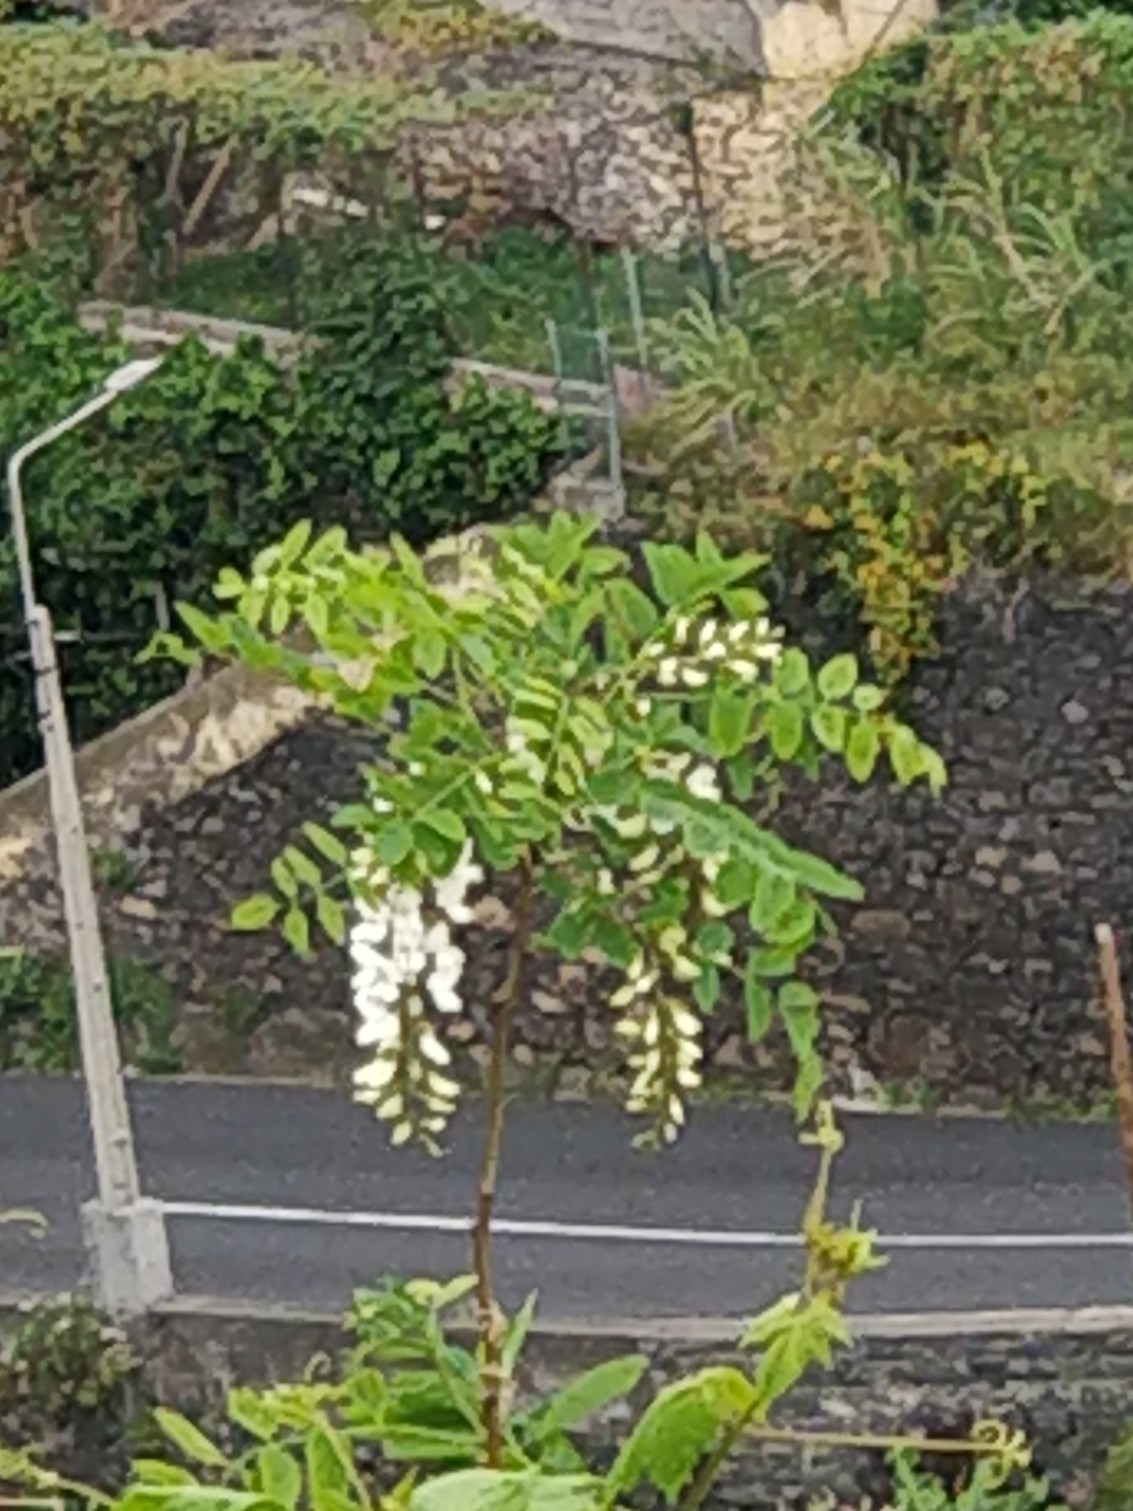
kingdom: Plantae
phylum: Tracheophyta
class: Magnoliopsida
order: Fabales
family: Fabaceae
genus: Robinia
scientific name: Robinia pseudoacacia
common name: Black locust
